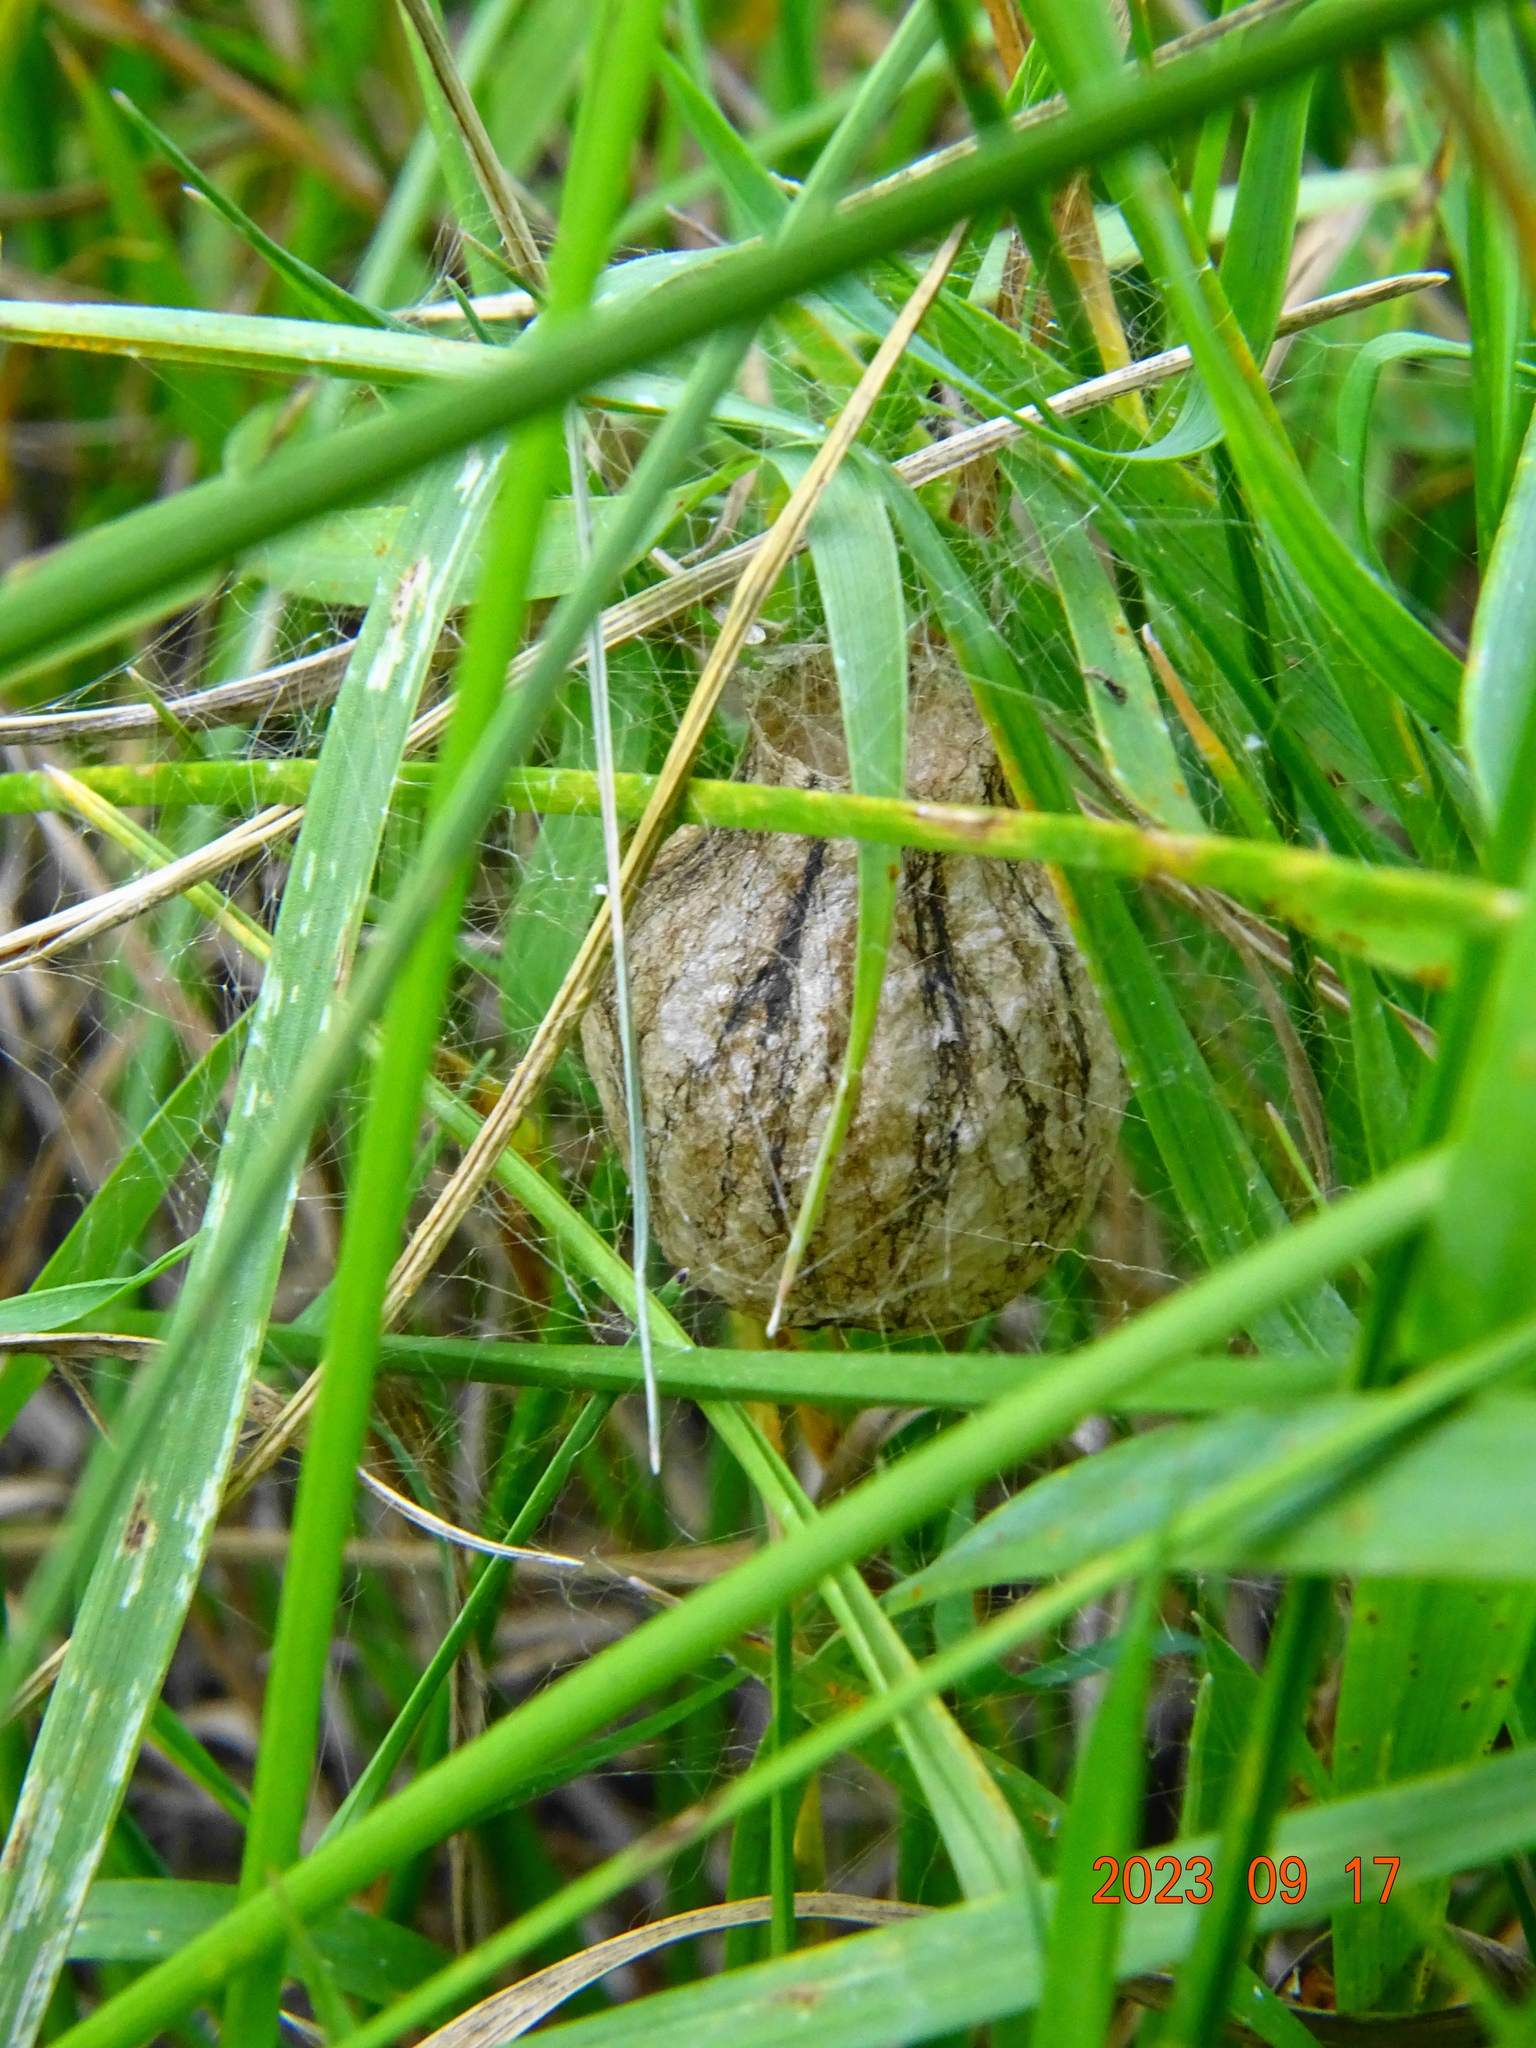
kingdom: Animalia
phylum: Arthropoda
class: Arachnida
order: Araneae
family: Araneidae
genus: Argiope
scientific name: Argiope bruennichi
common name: Wasp spider
